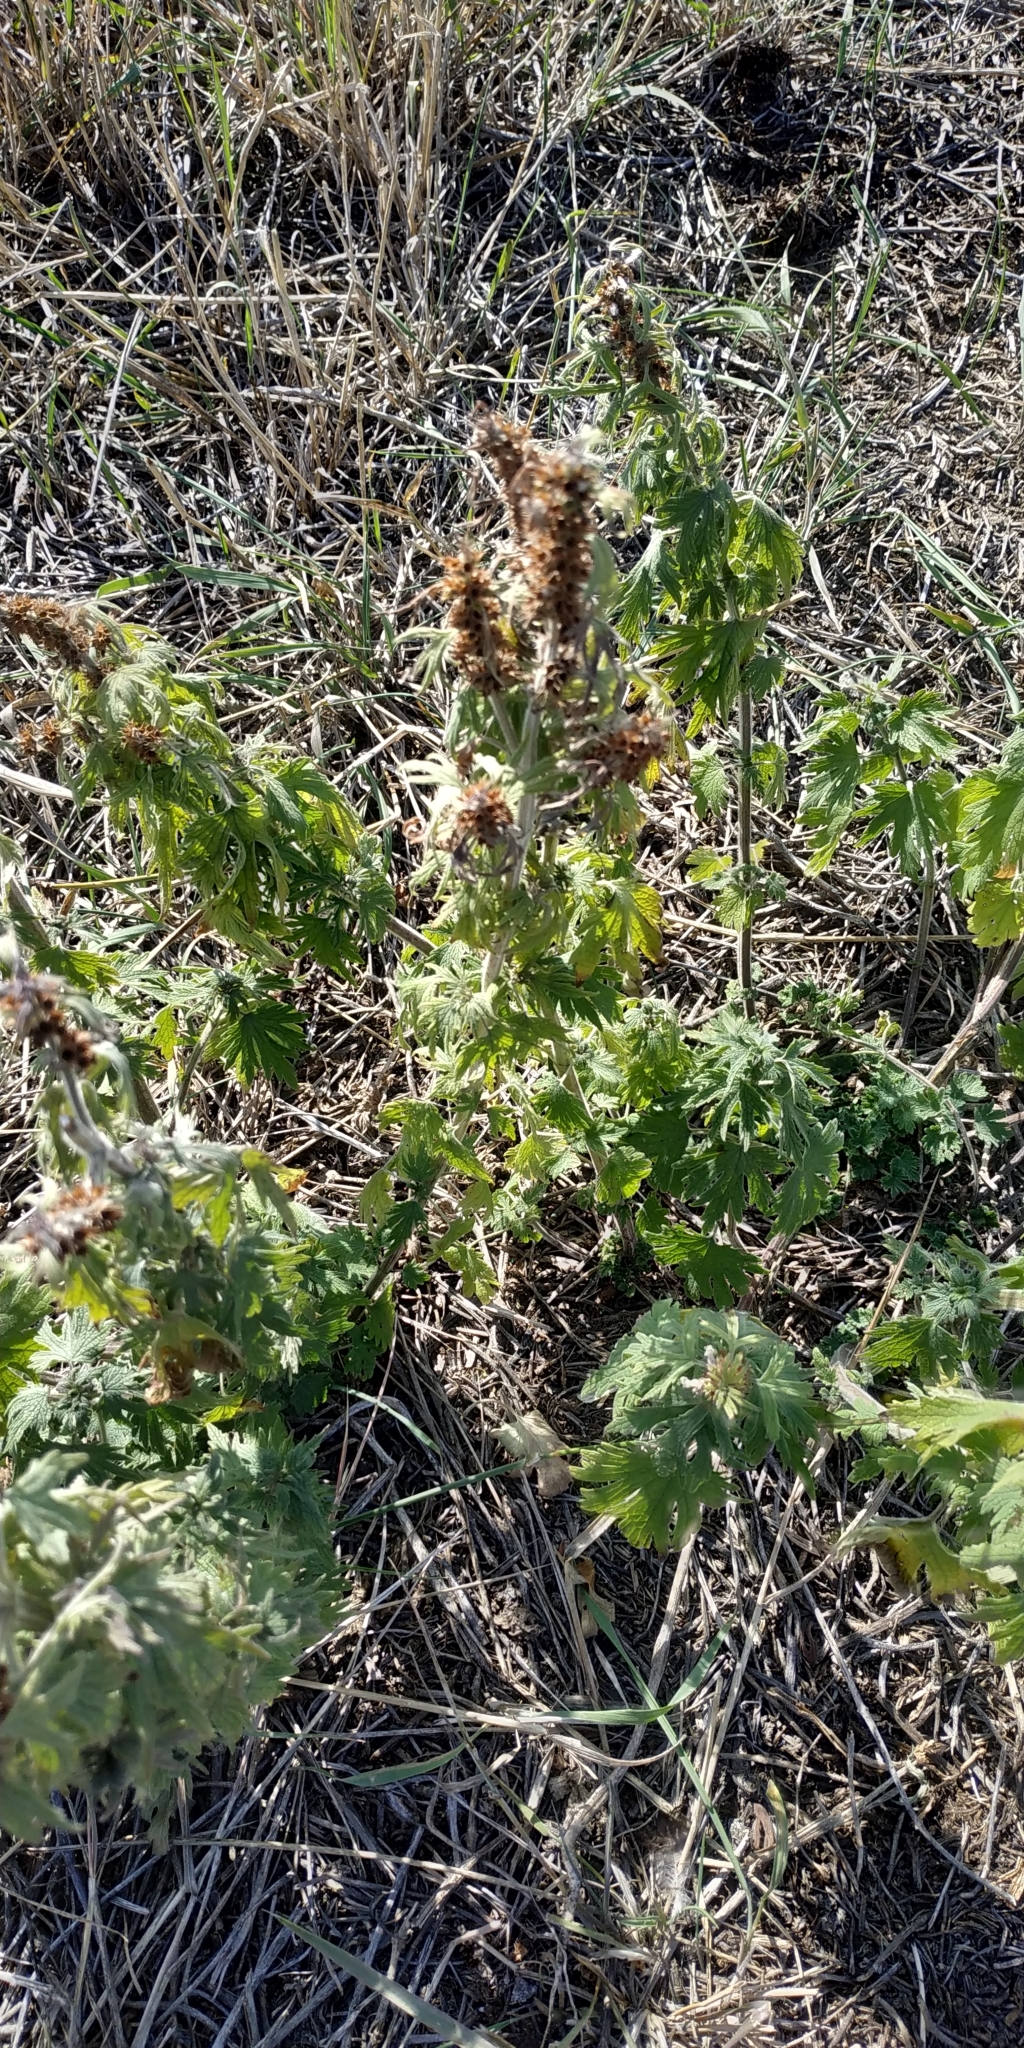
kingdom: Plantae
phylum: Tracheophyta
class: Magnoliopsida
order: Lamiales
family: Lamiaceae
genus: Leonurus
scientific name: Leonurus quinquelobatus
